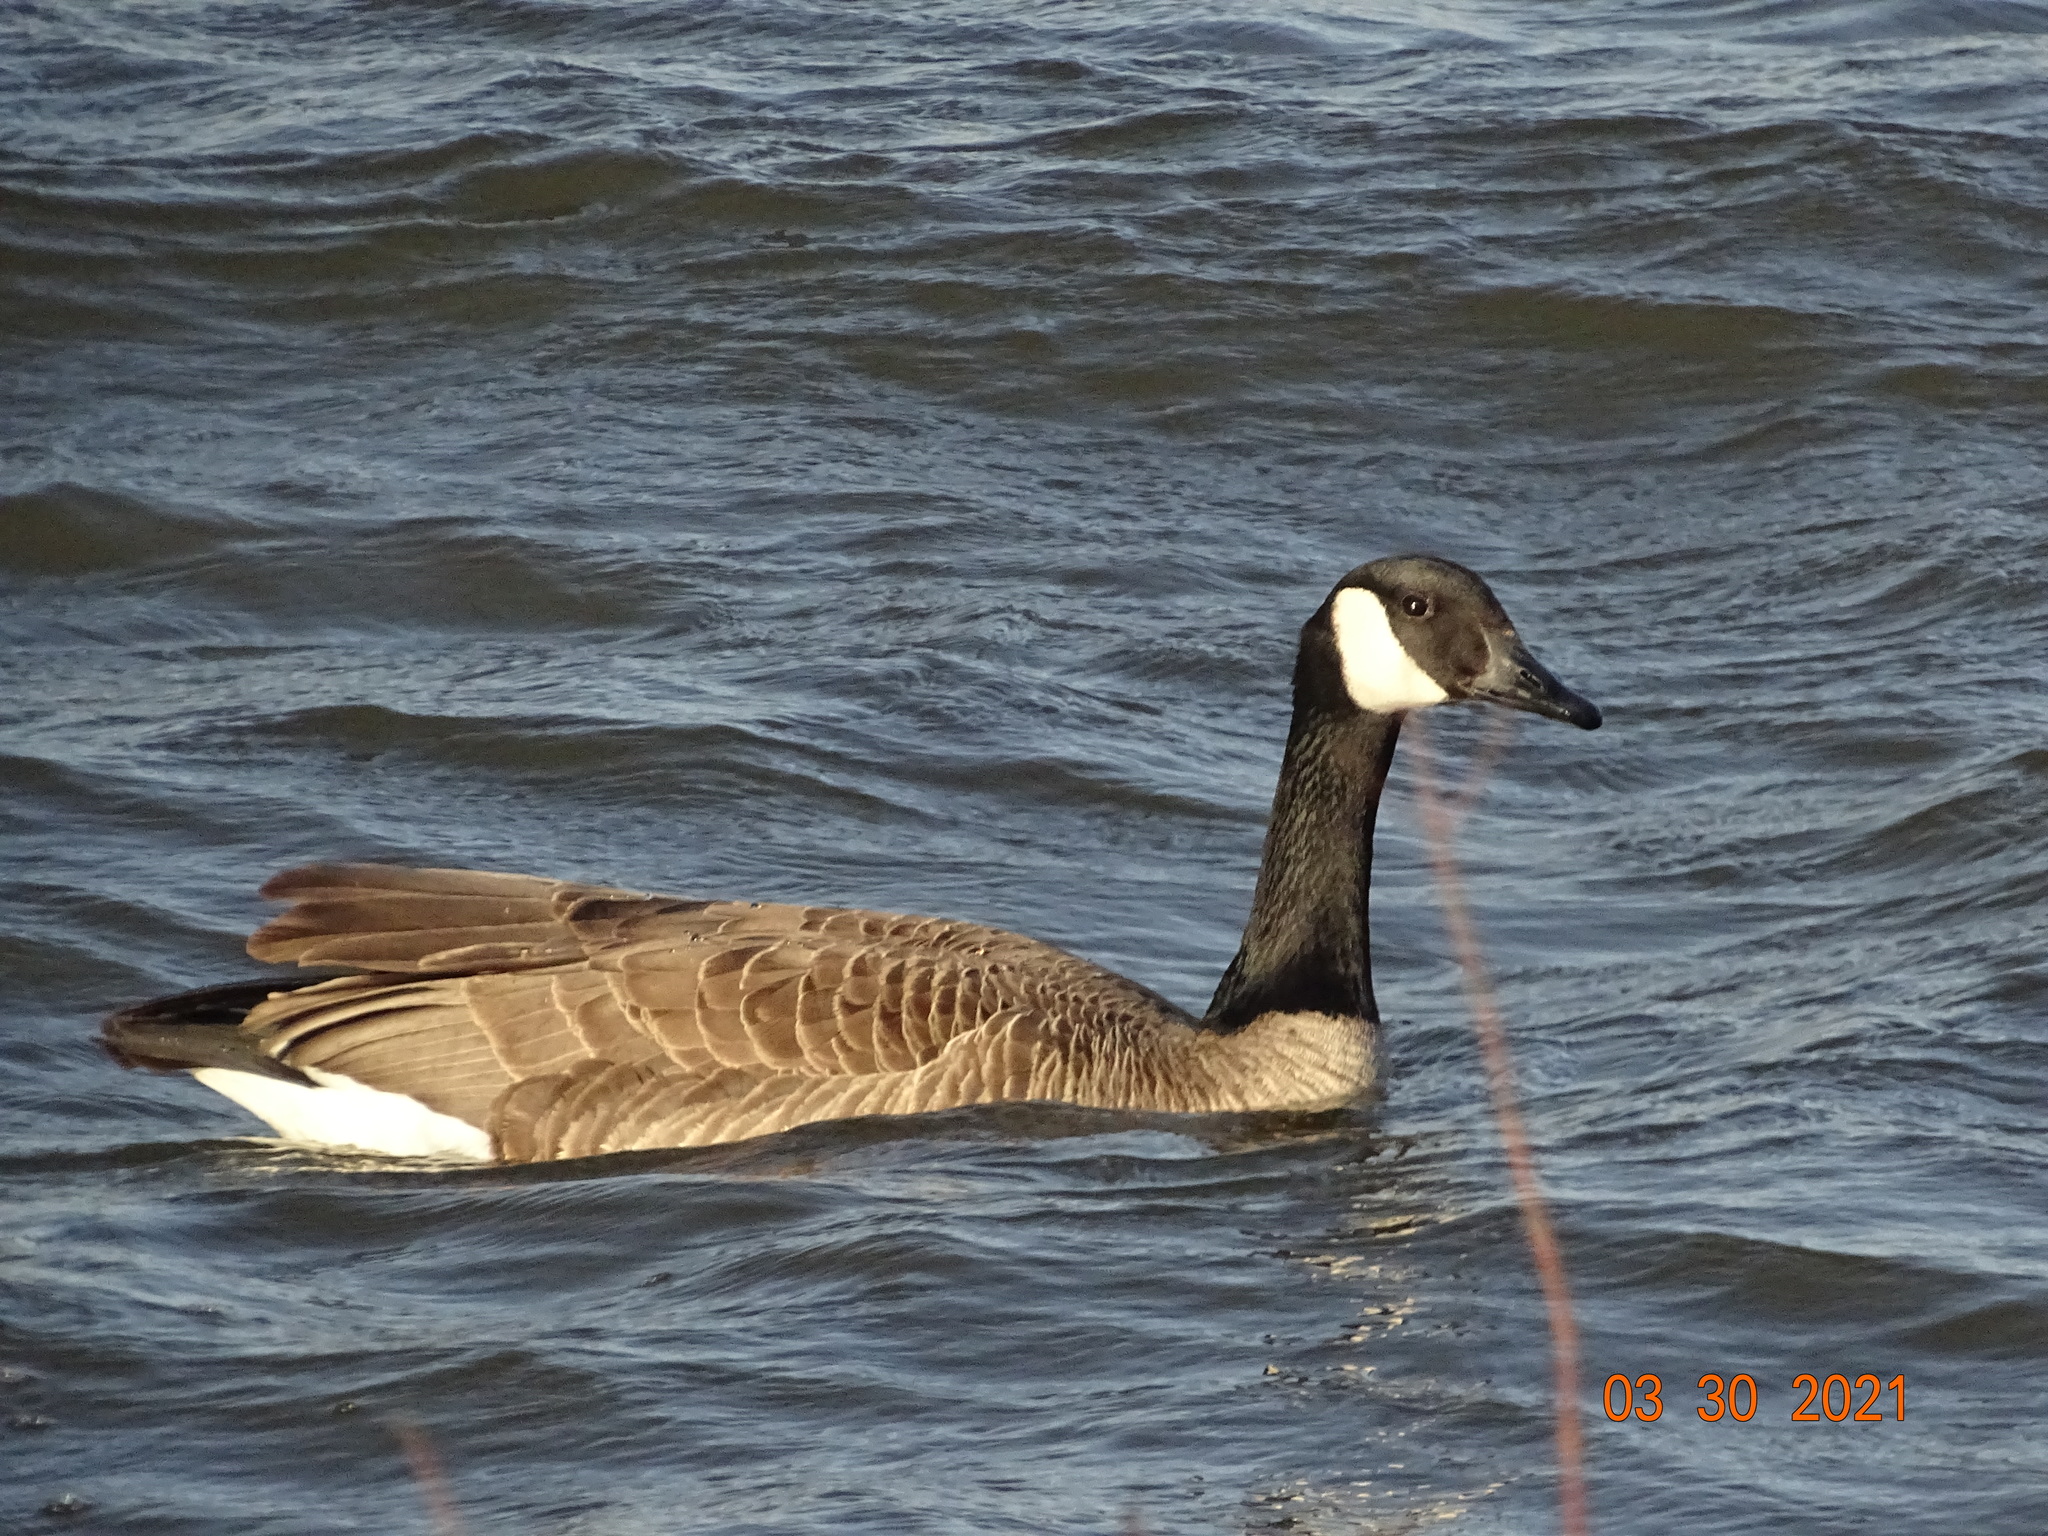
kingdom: Animalia
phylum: Chordata
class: Aves
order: Anseriformes
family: Anatidae
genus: Branta
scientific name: Branta canadensis
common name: Canada goose
